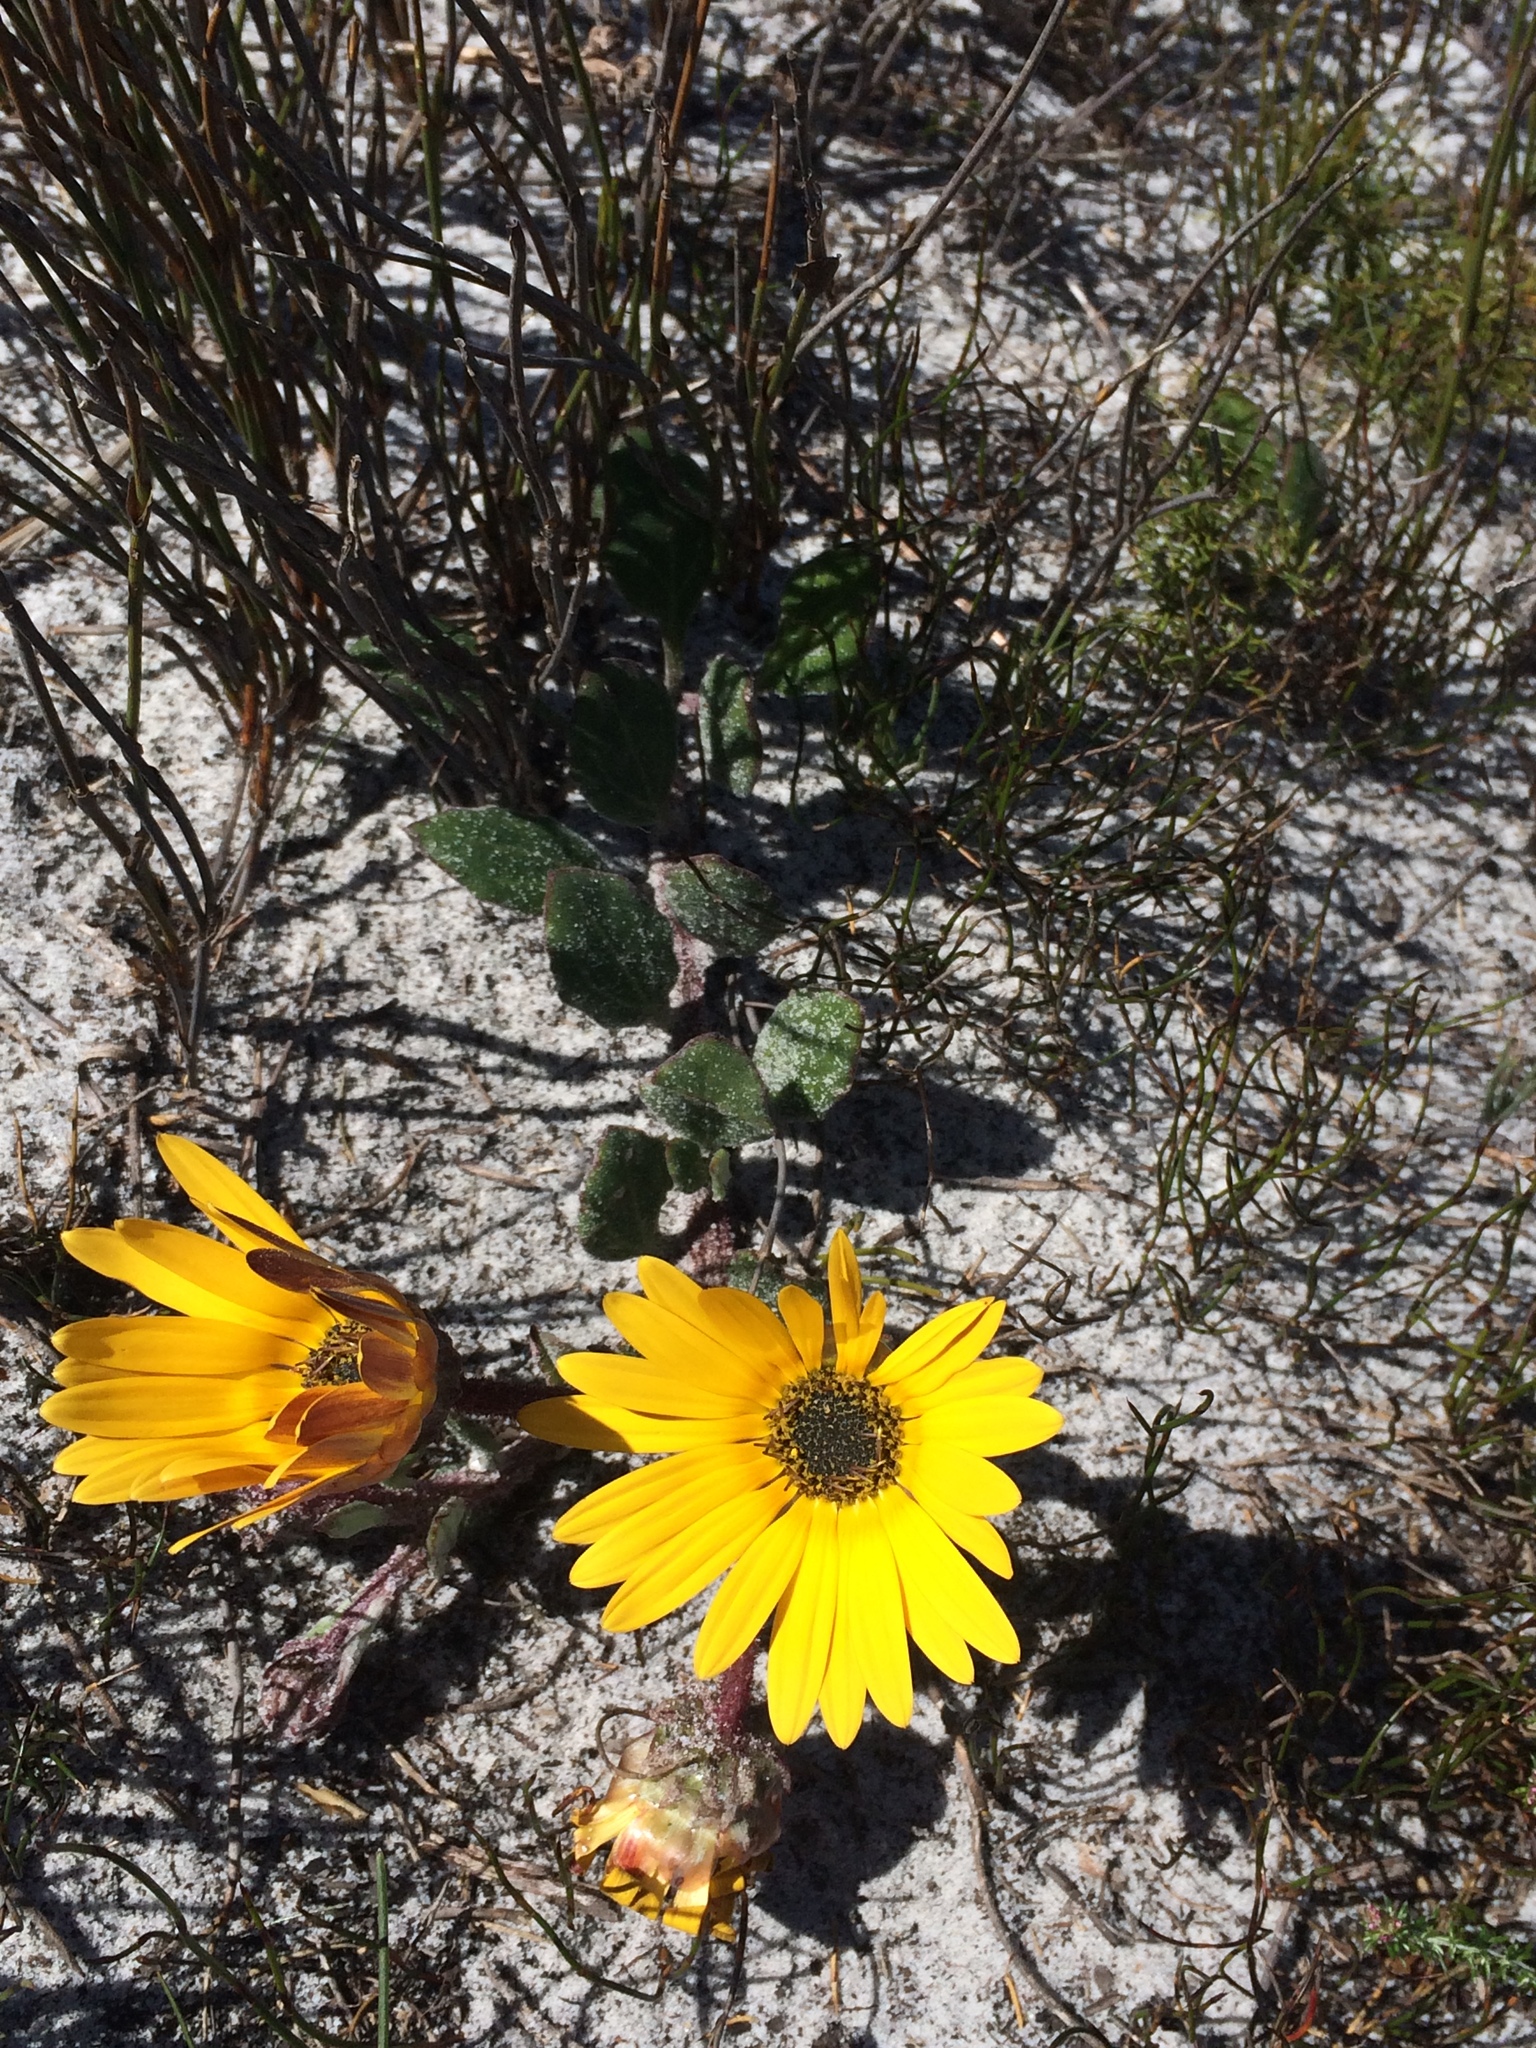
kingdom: Plantae
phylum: Tracheophyta
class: Magnoliopsida
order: Asterales
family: Asteraceae
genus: Arctotis
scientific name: Arctotis angustifolia
